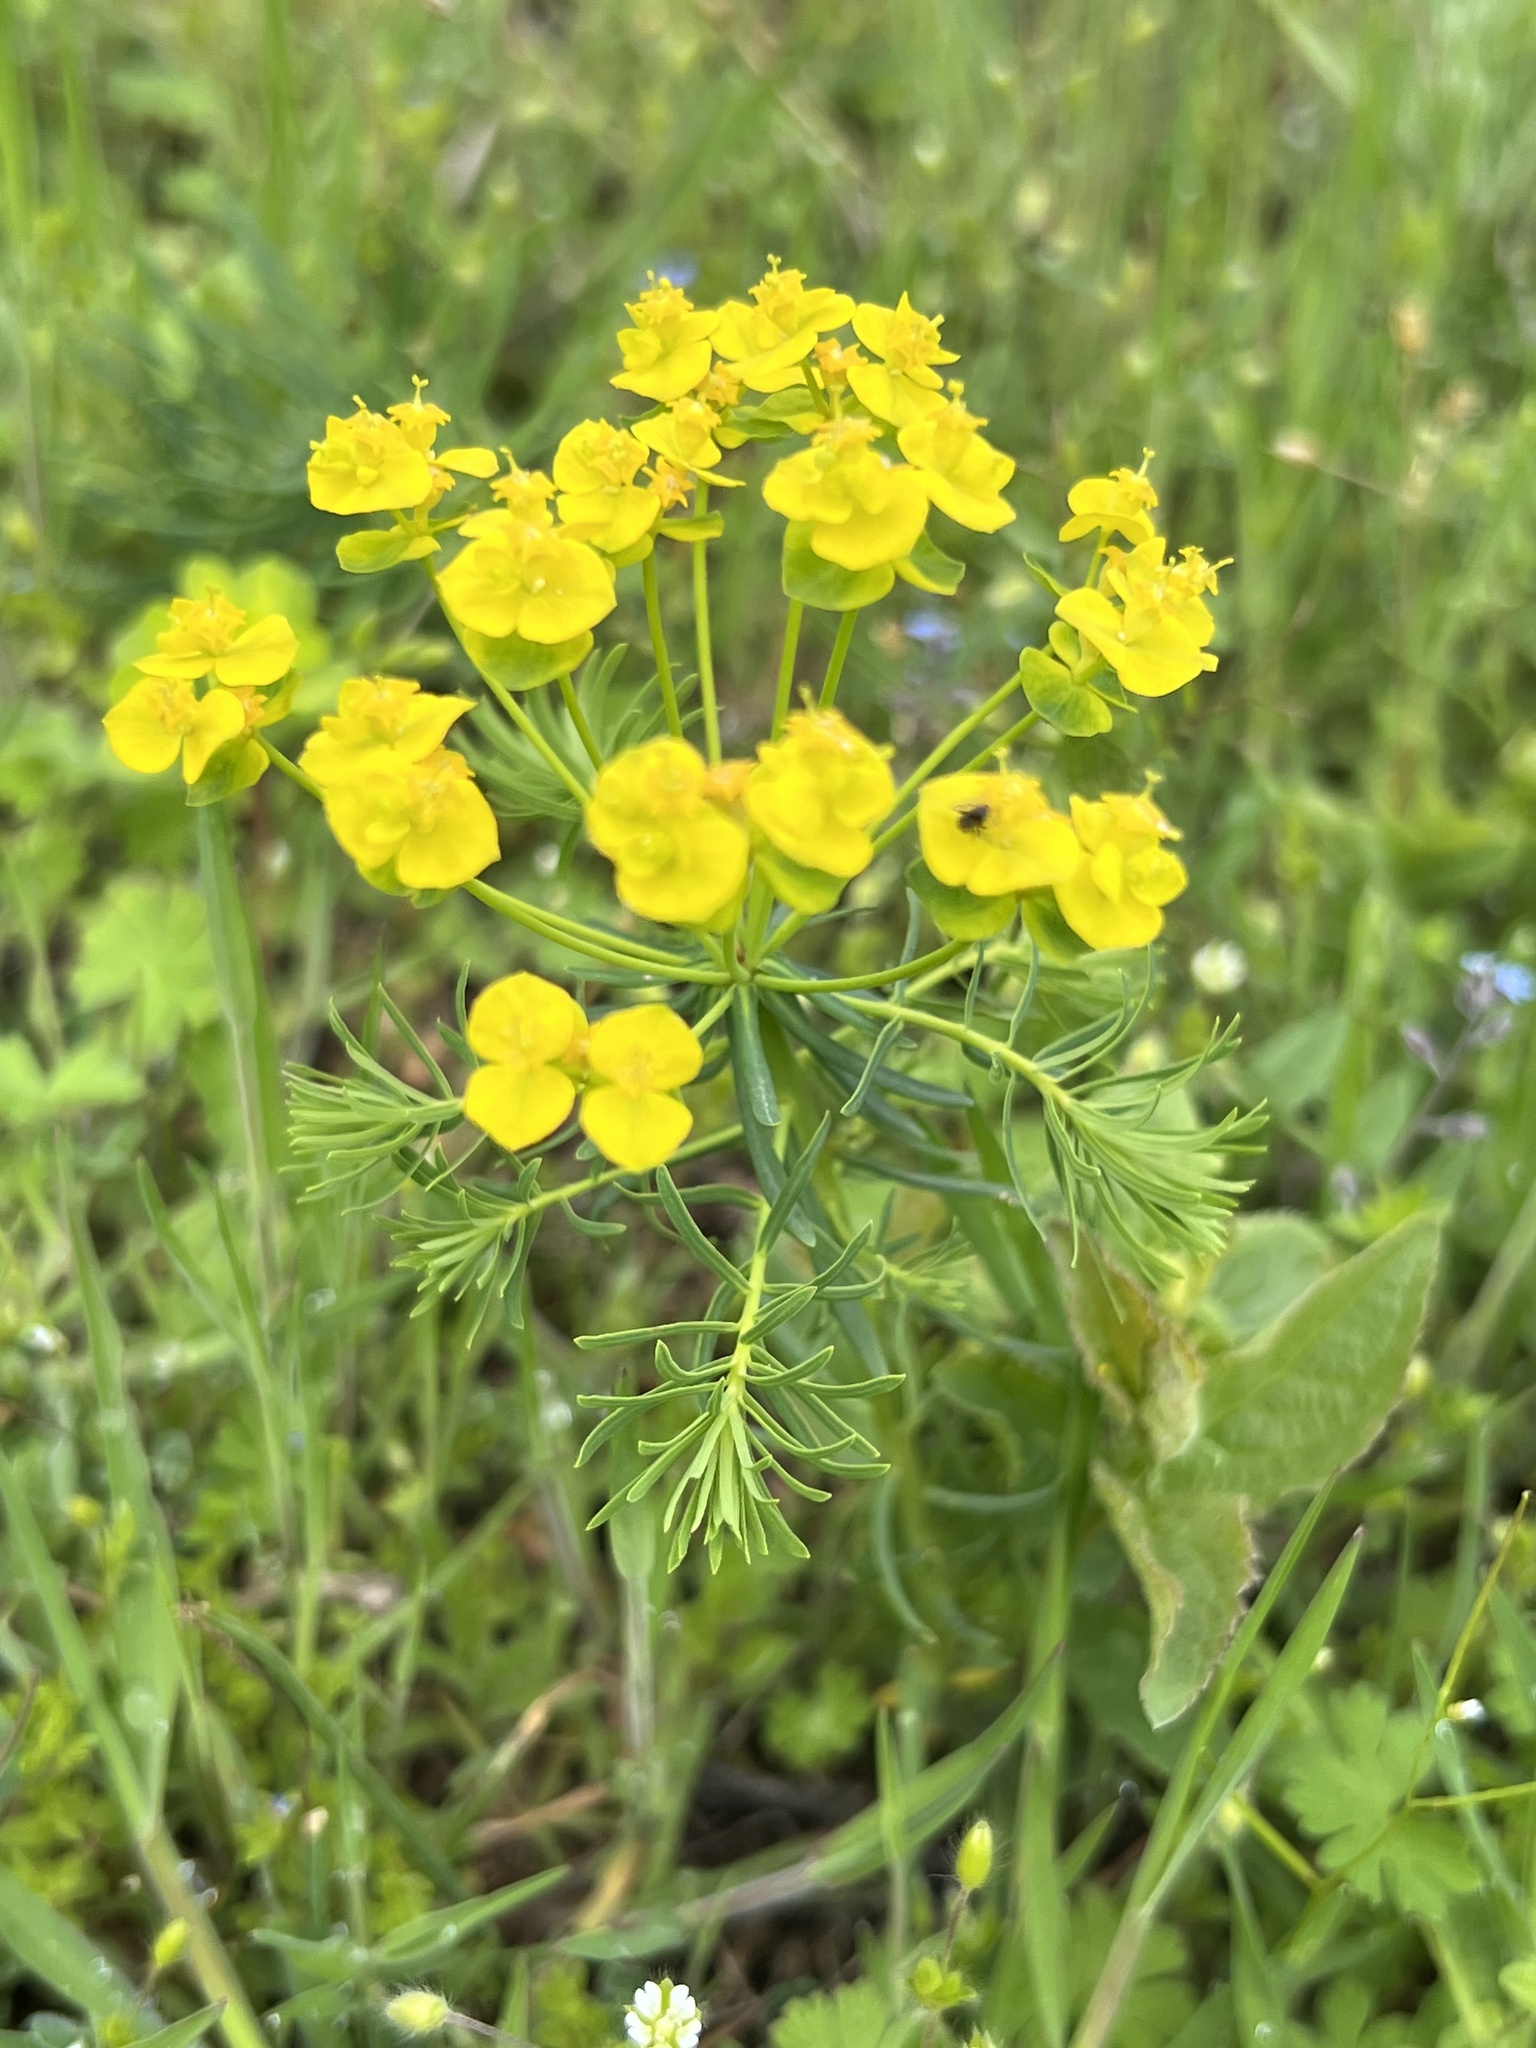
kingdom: Plantae
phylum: Tracheophyta
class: Magnoliopsida
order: Malpighiales
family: Euphorbiaceae
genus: Euphorbia
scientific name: Euphorbia cyparissias
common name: Cypress spurge
